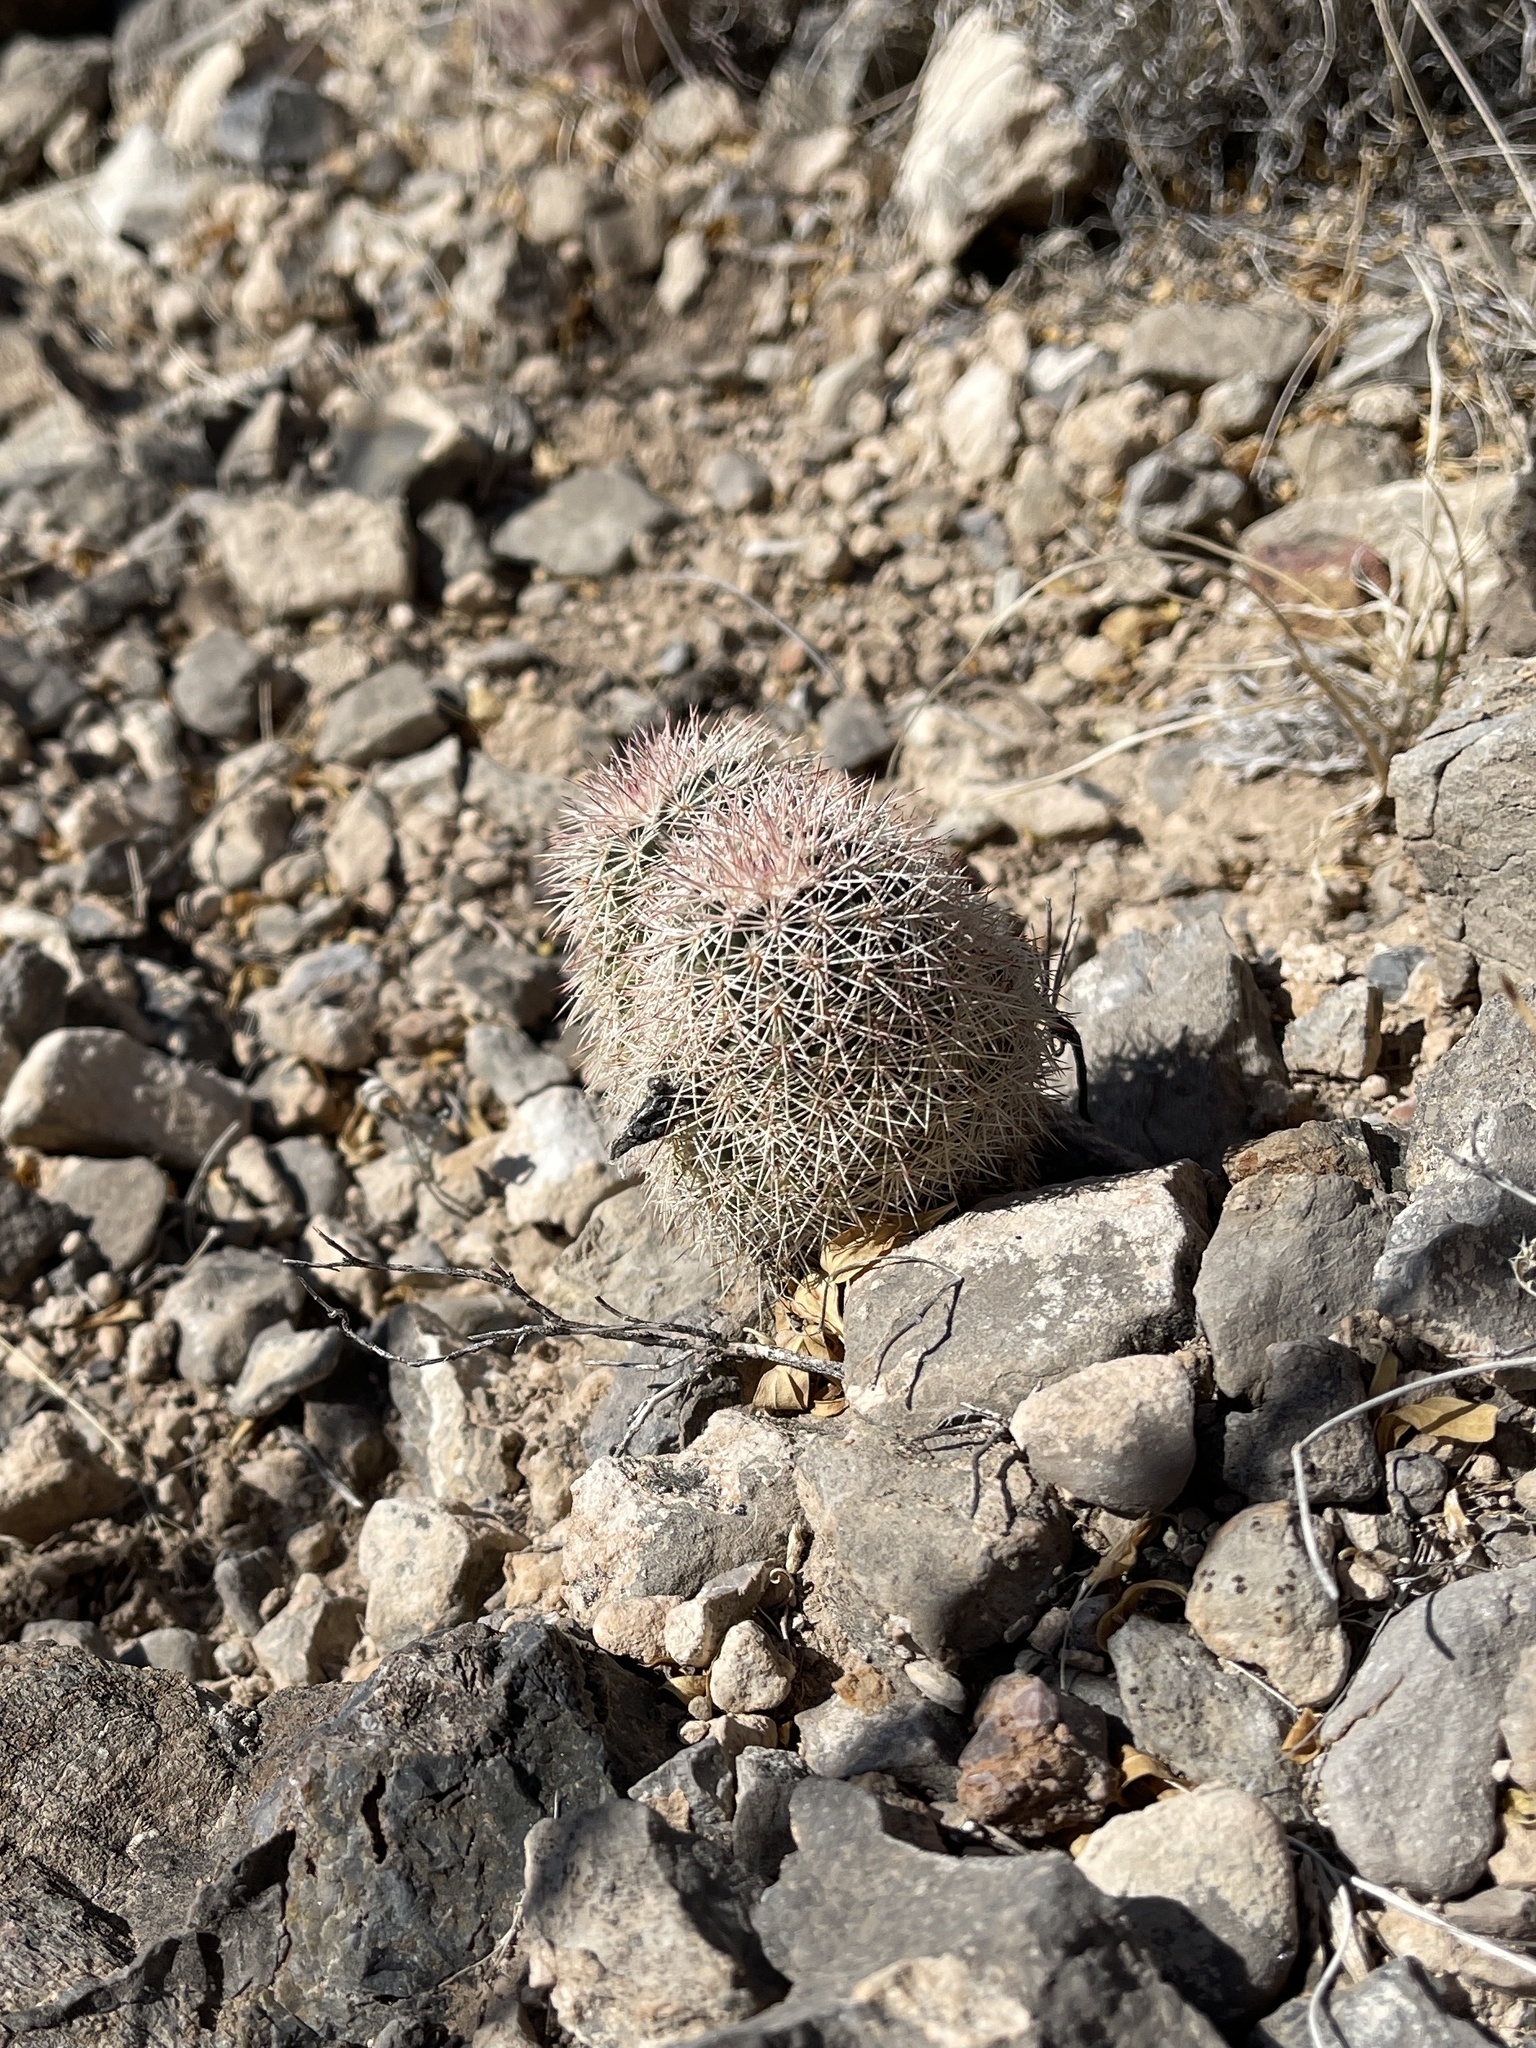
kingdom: Plantae
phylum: Tracheophyta
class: Magnoliopsida
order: Caryophyllales
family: Cactaceae
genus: Echinocereus
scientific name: Echinocereus dasyacanthus
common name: Spiny hedgehog cactus
